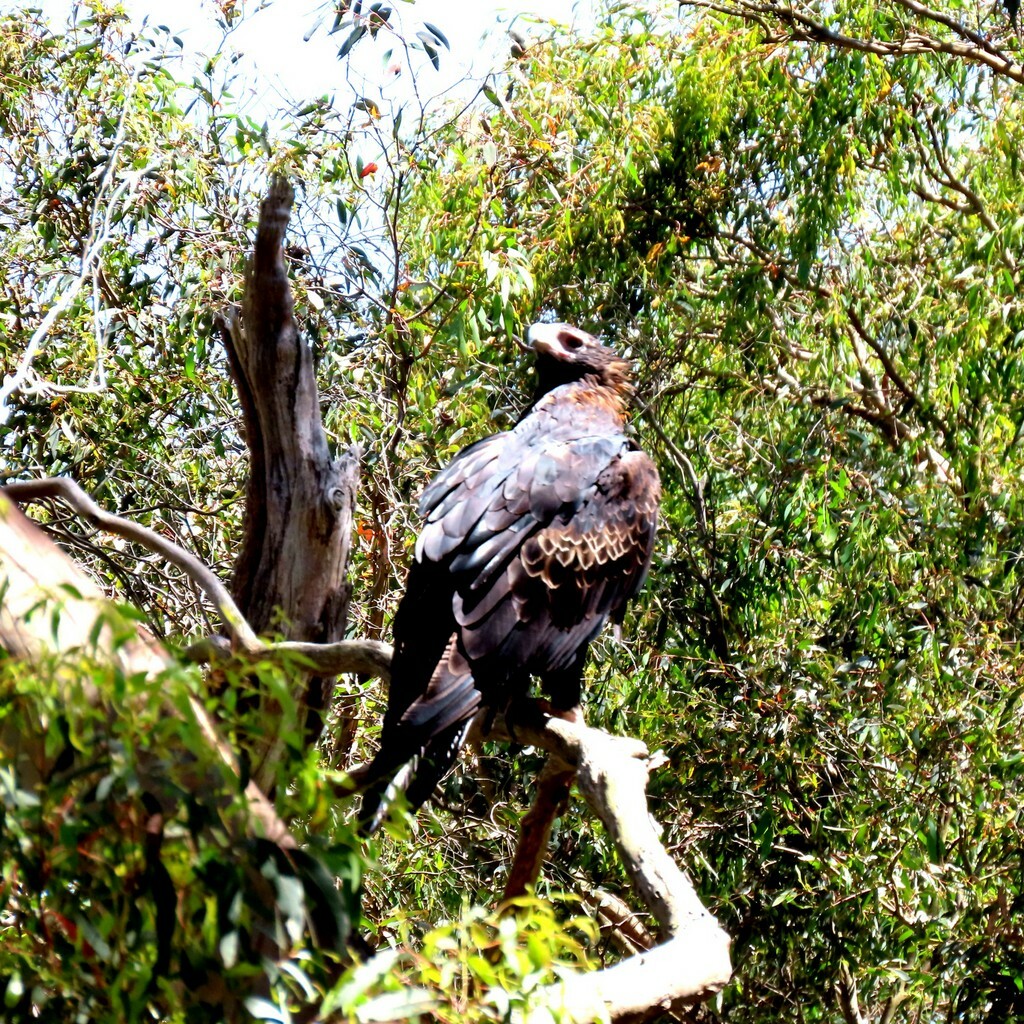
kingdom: Animalia
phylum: Chordata
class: Aves
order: Accipitriformes
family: Accipitridae
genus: Aquila
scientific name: Aquila audax
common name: Wedge-tailed eagle
